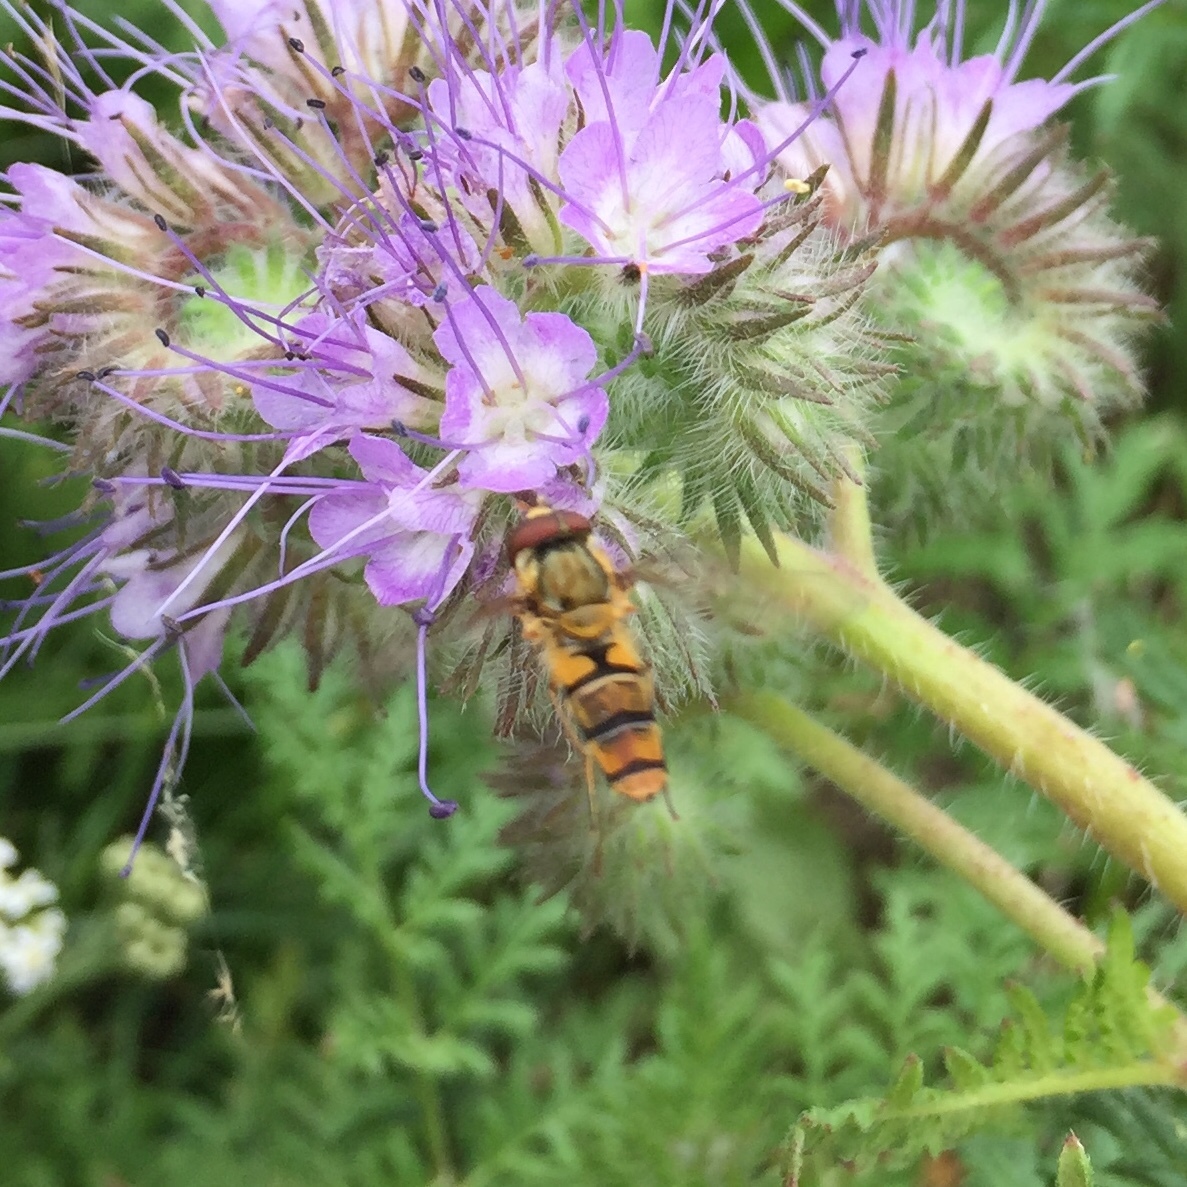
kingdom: Animalia
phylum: Arthropoda
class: Insecta
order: Diptera
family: Syrphidae
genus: Episyrphus
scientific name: Episyrphus balteatus
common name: Marmalade hoverfly
